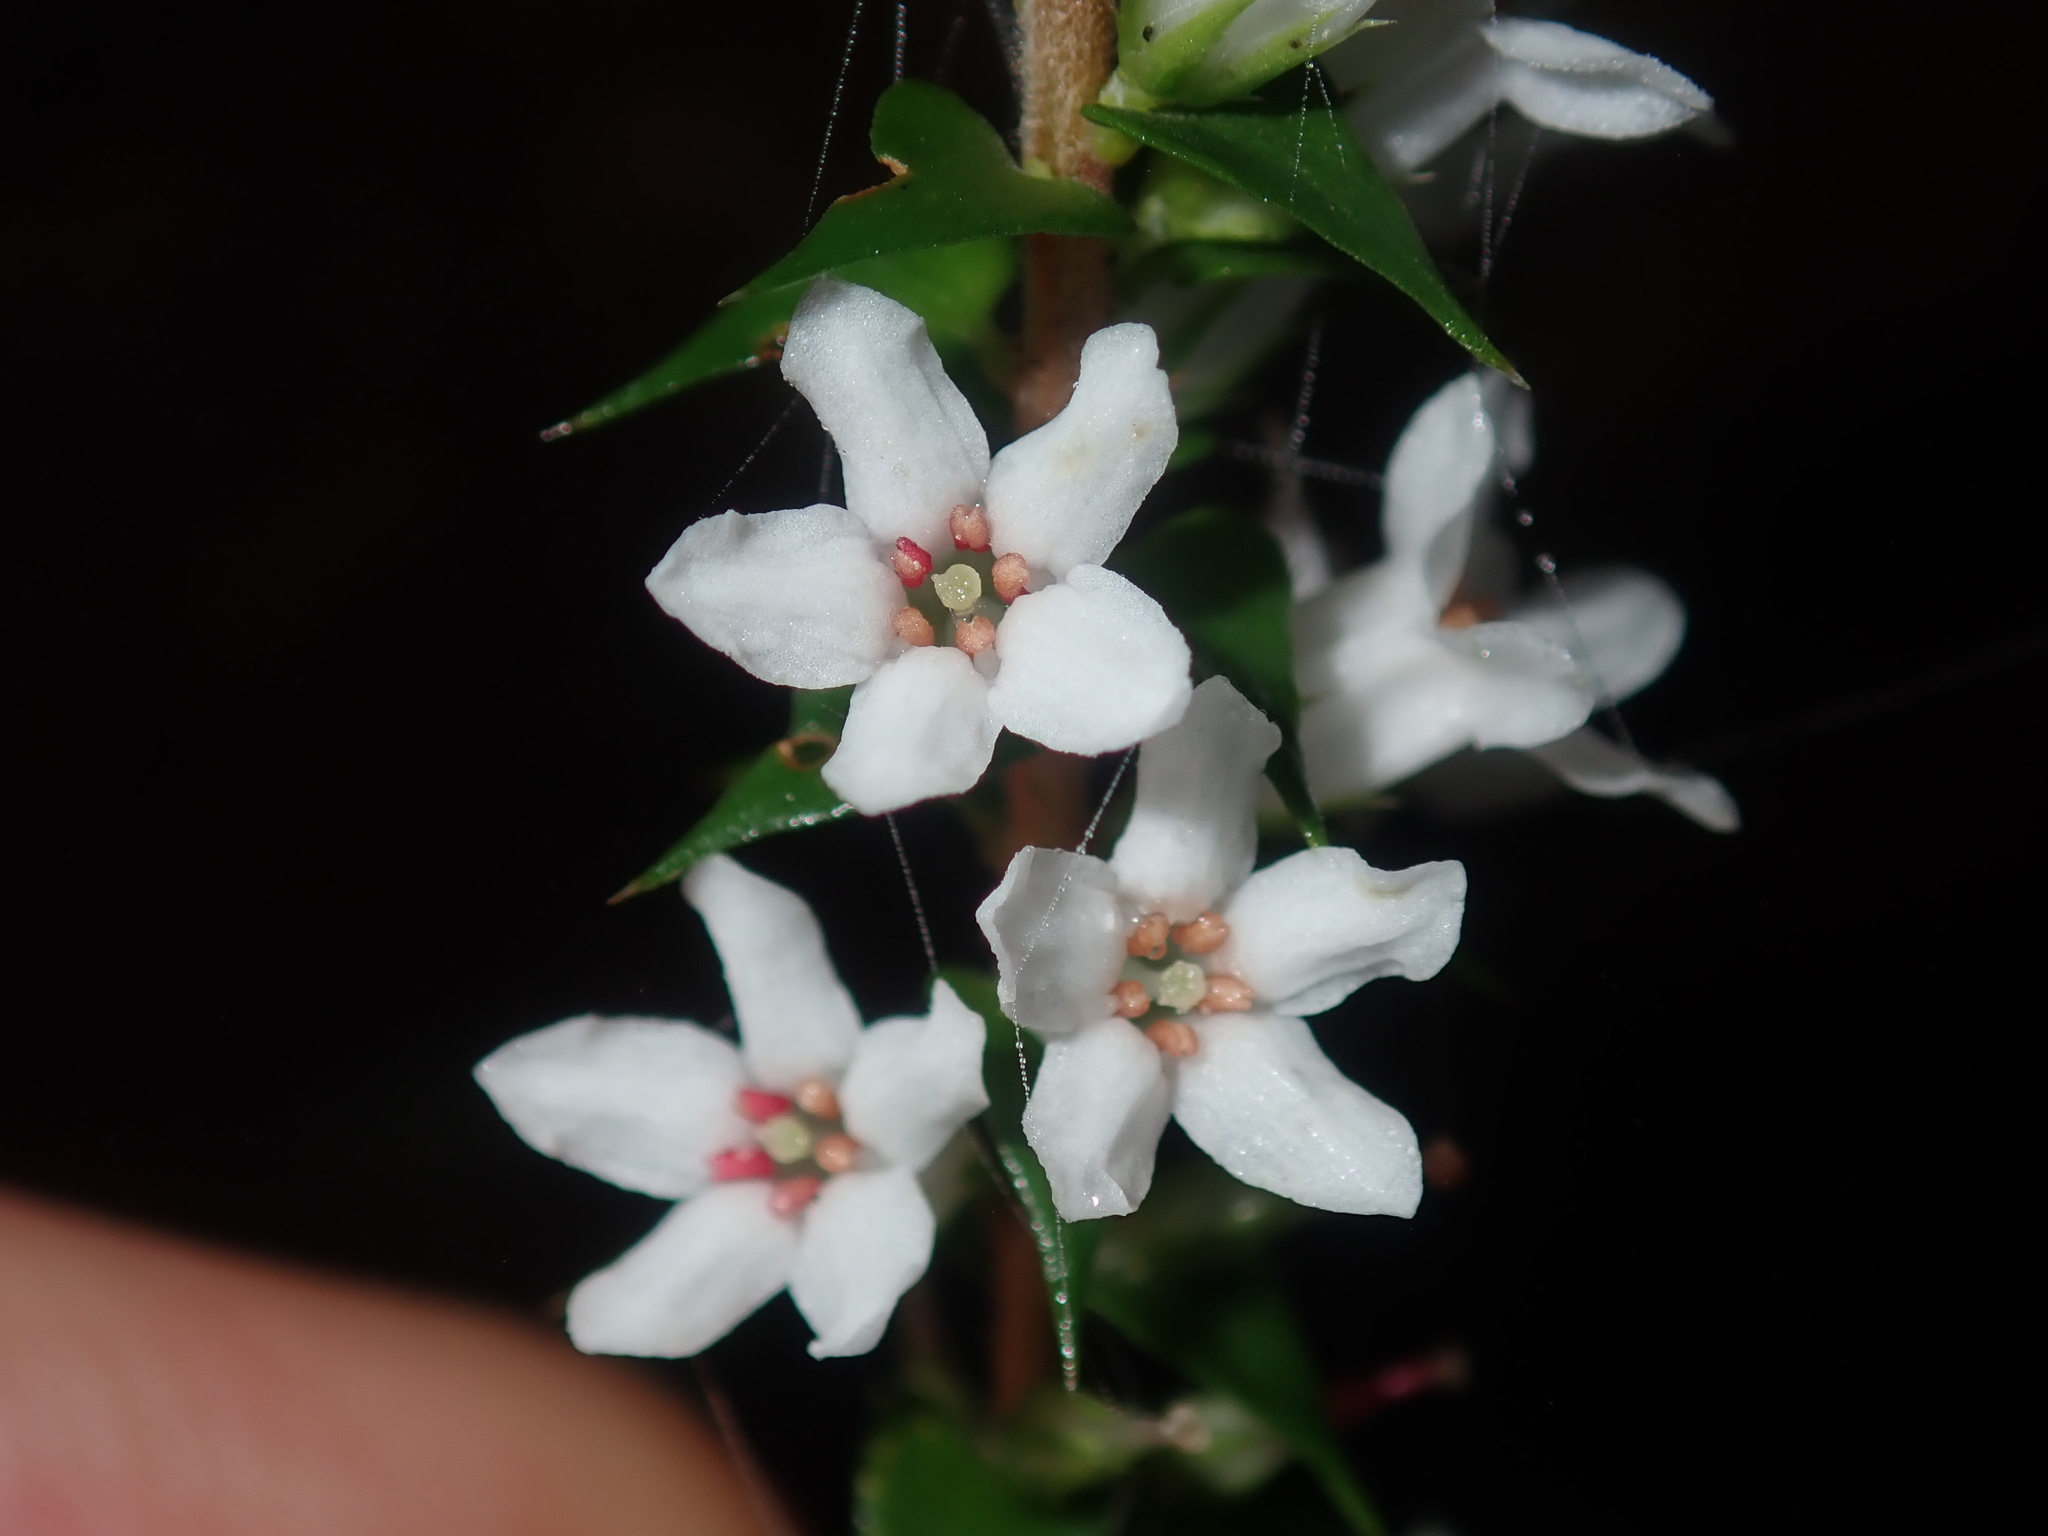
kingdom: Plantae
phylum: Tracheophyta
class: Magnoliopsida
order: Ericales
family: Ericaceae
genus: Epacris
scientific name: Epacris pulchella
